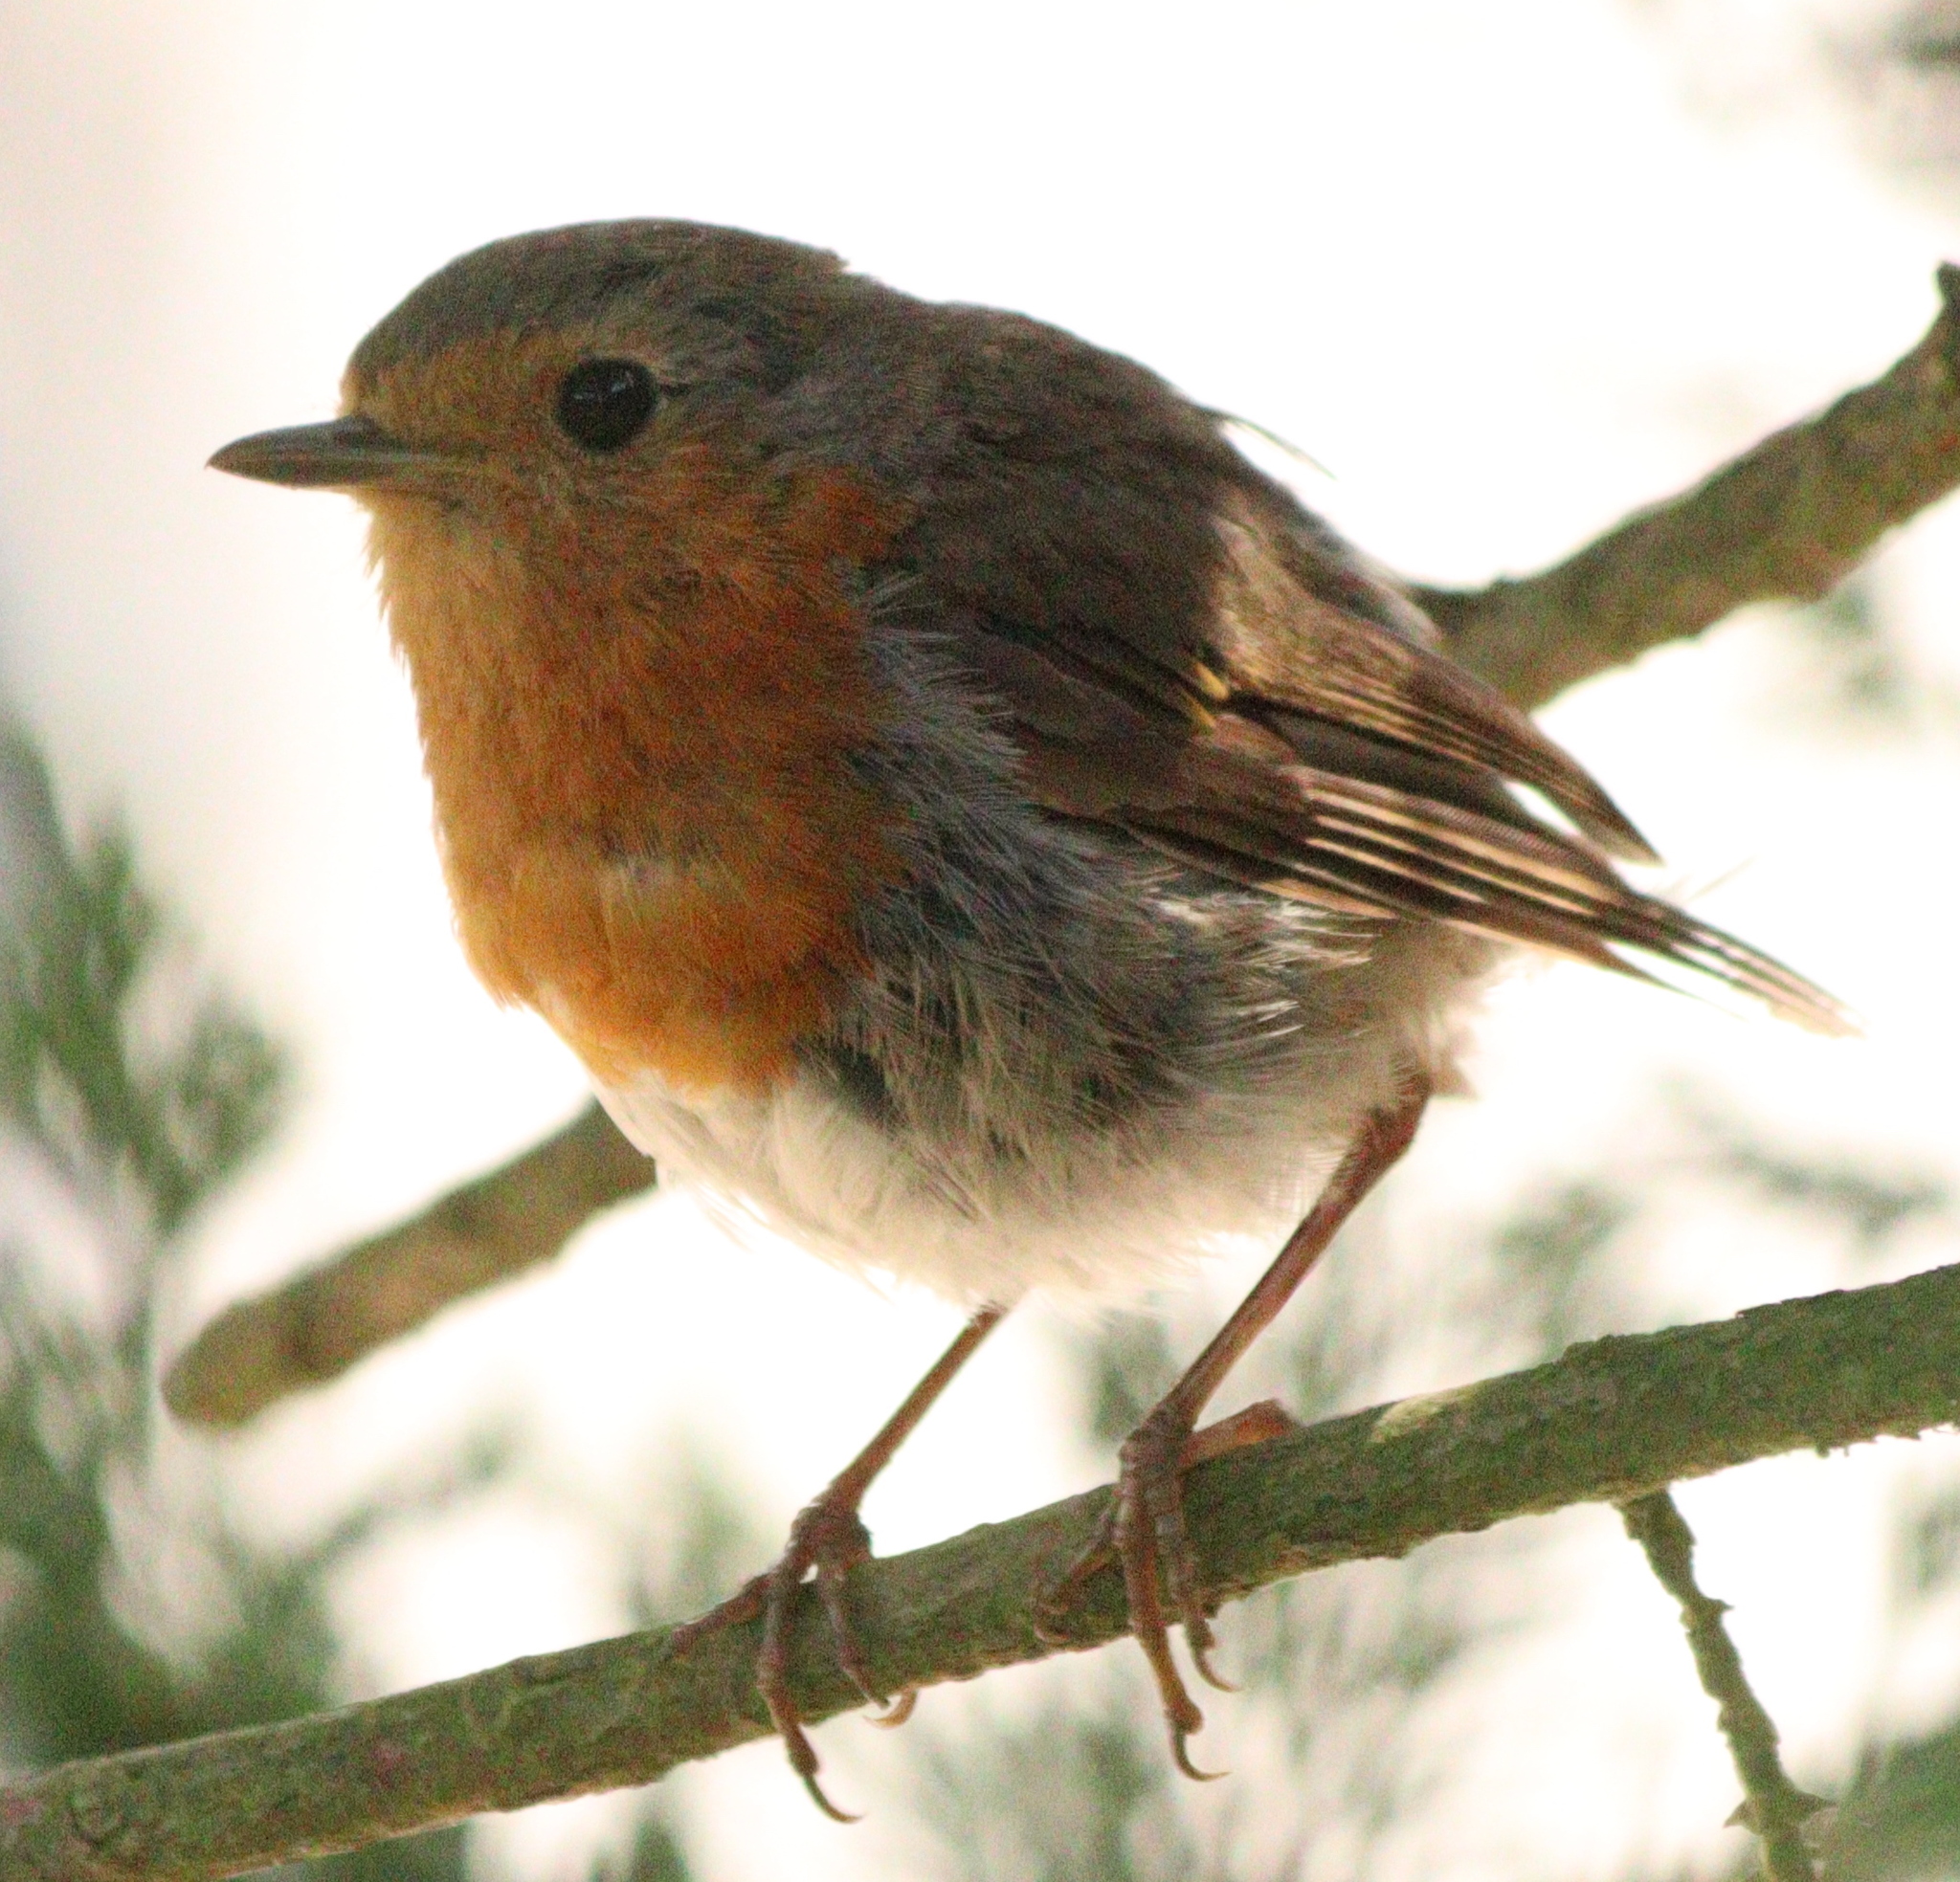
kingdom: Animalia
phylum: Chordata
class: Aves
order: Passeriformes
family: Muscicapidae
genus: Erithacus
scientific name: Erithacus rubecula
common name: European robin
